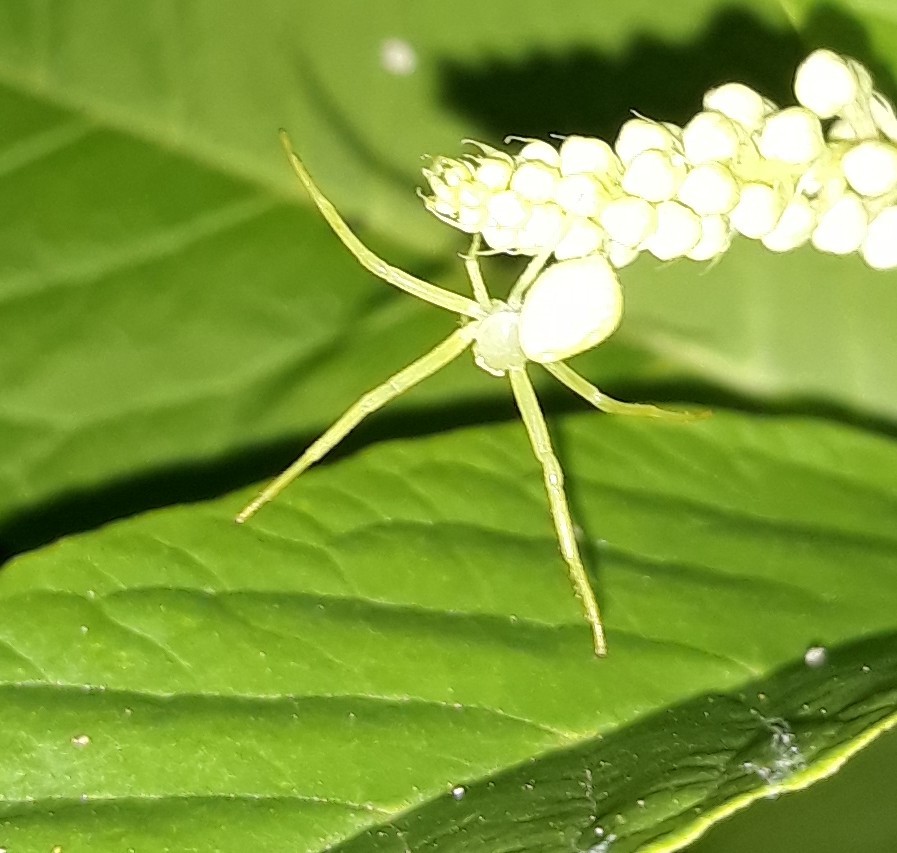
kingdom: Animalia
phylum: Arthropoda
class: Arachnida
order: Araneae
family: Thomisidae
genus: Misumessus
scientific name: Misumessus oblongus
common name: American green crab spider
